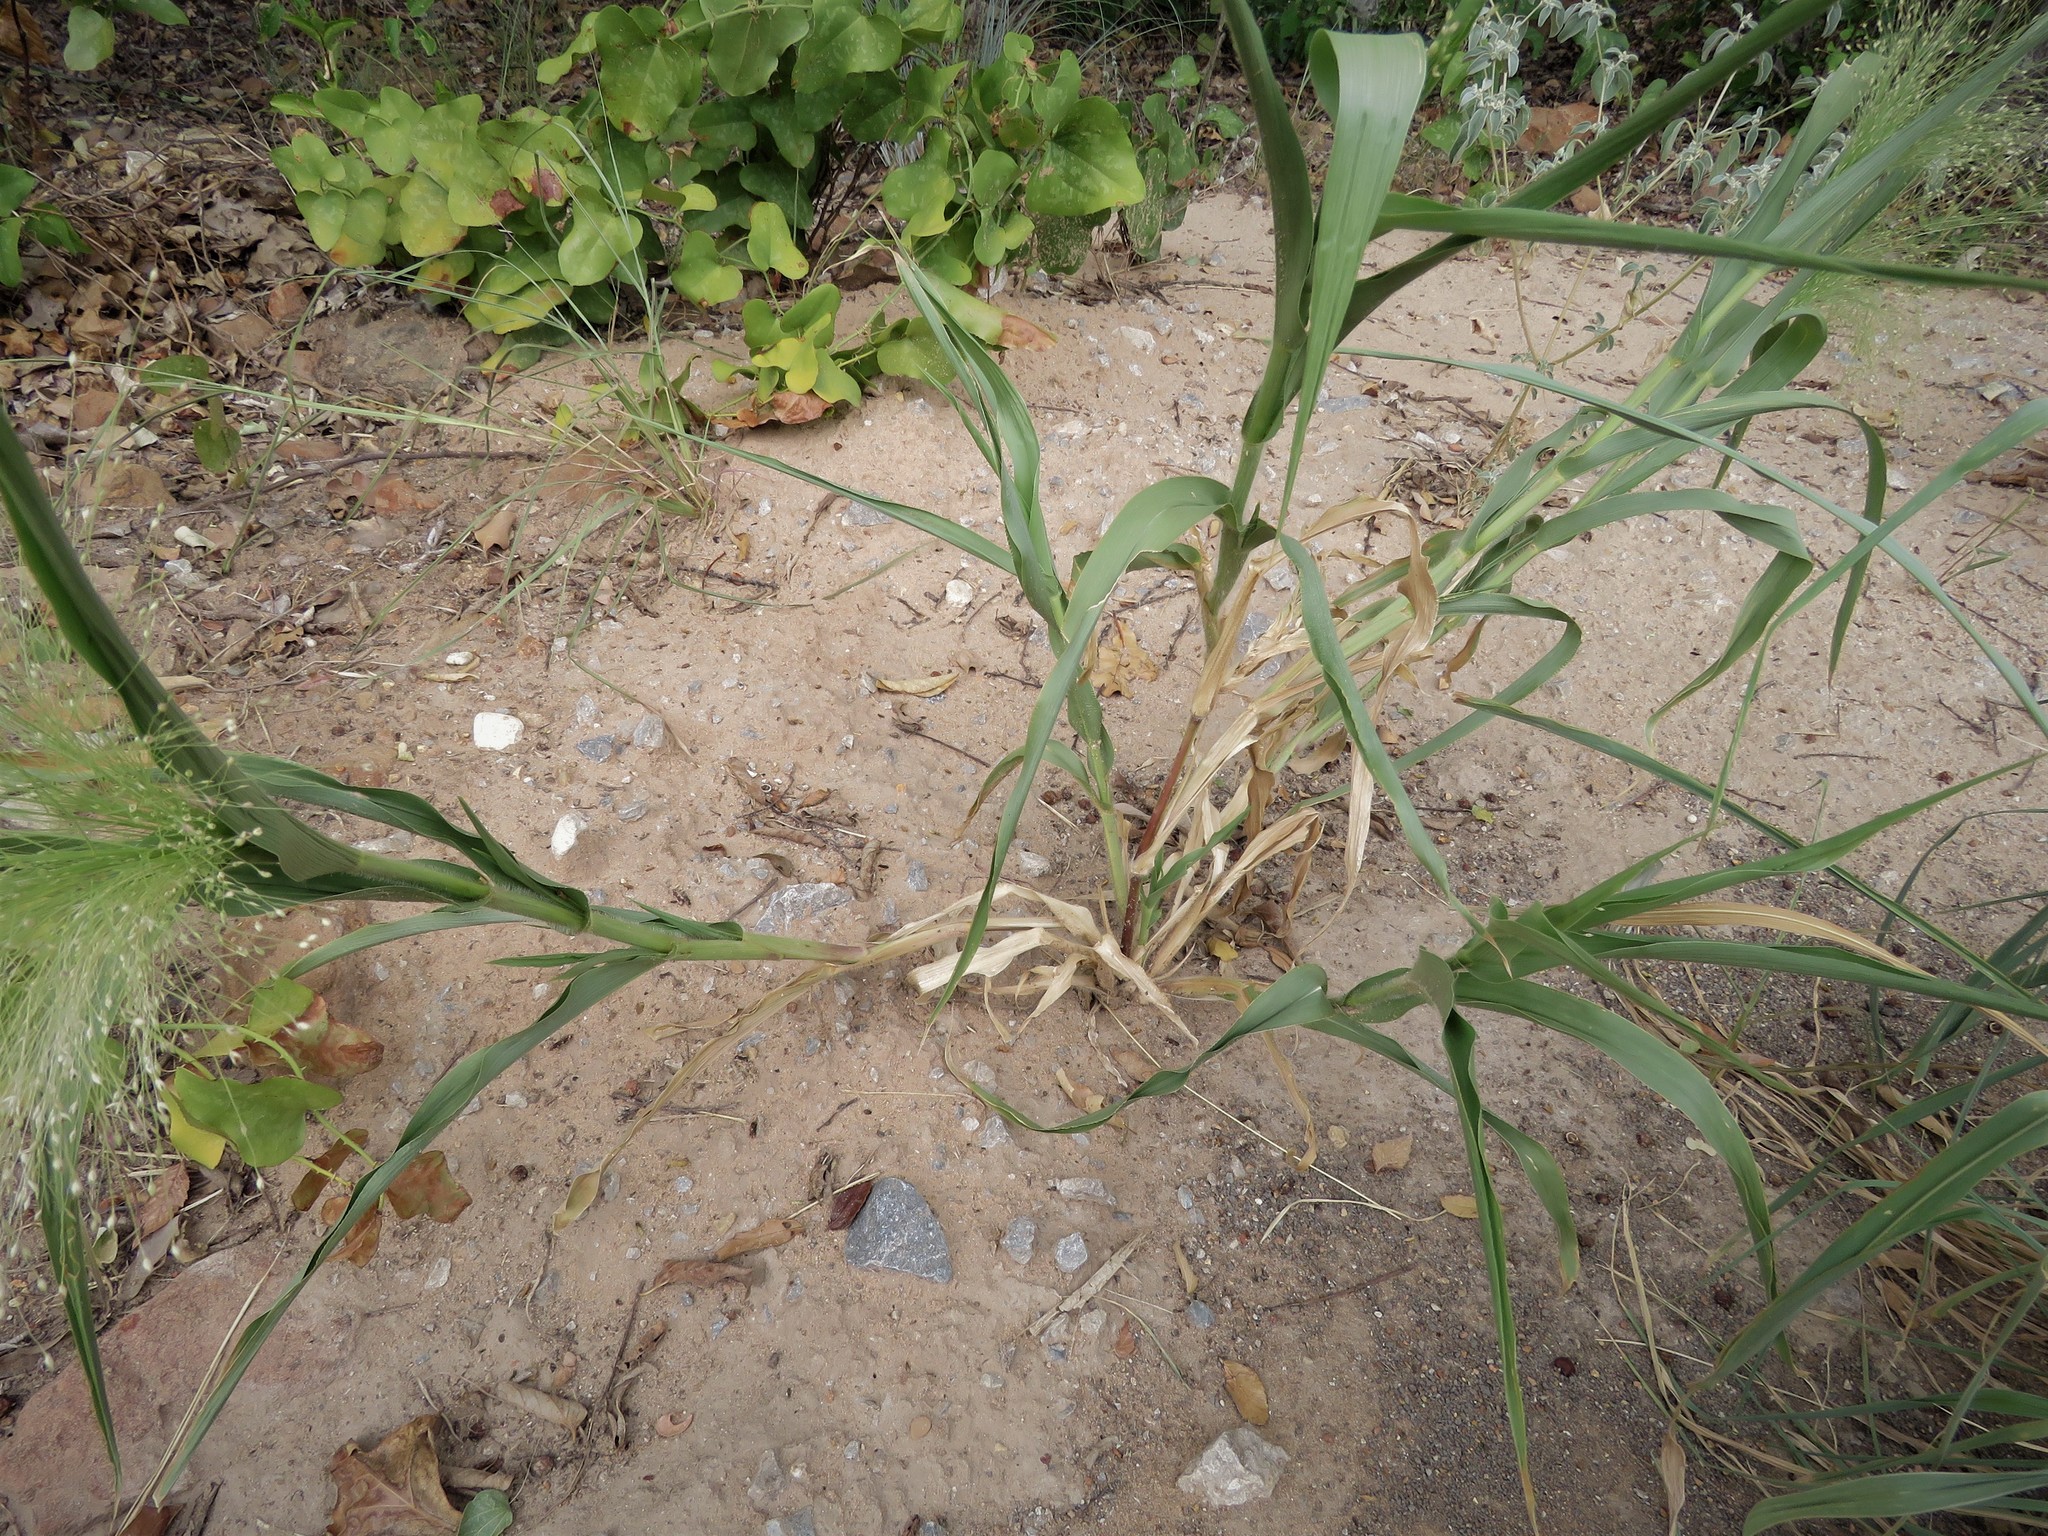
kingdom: Plantae
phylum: Tracheophyta
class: Liliopsida
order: Poales
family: Poaceae
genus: Panicum
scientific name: Panicum capillare
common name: Witch-grass
